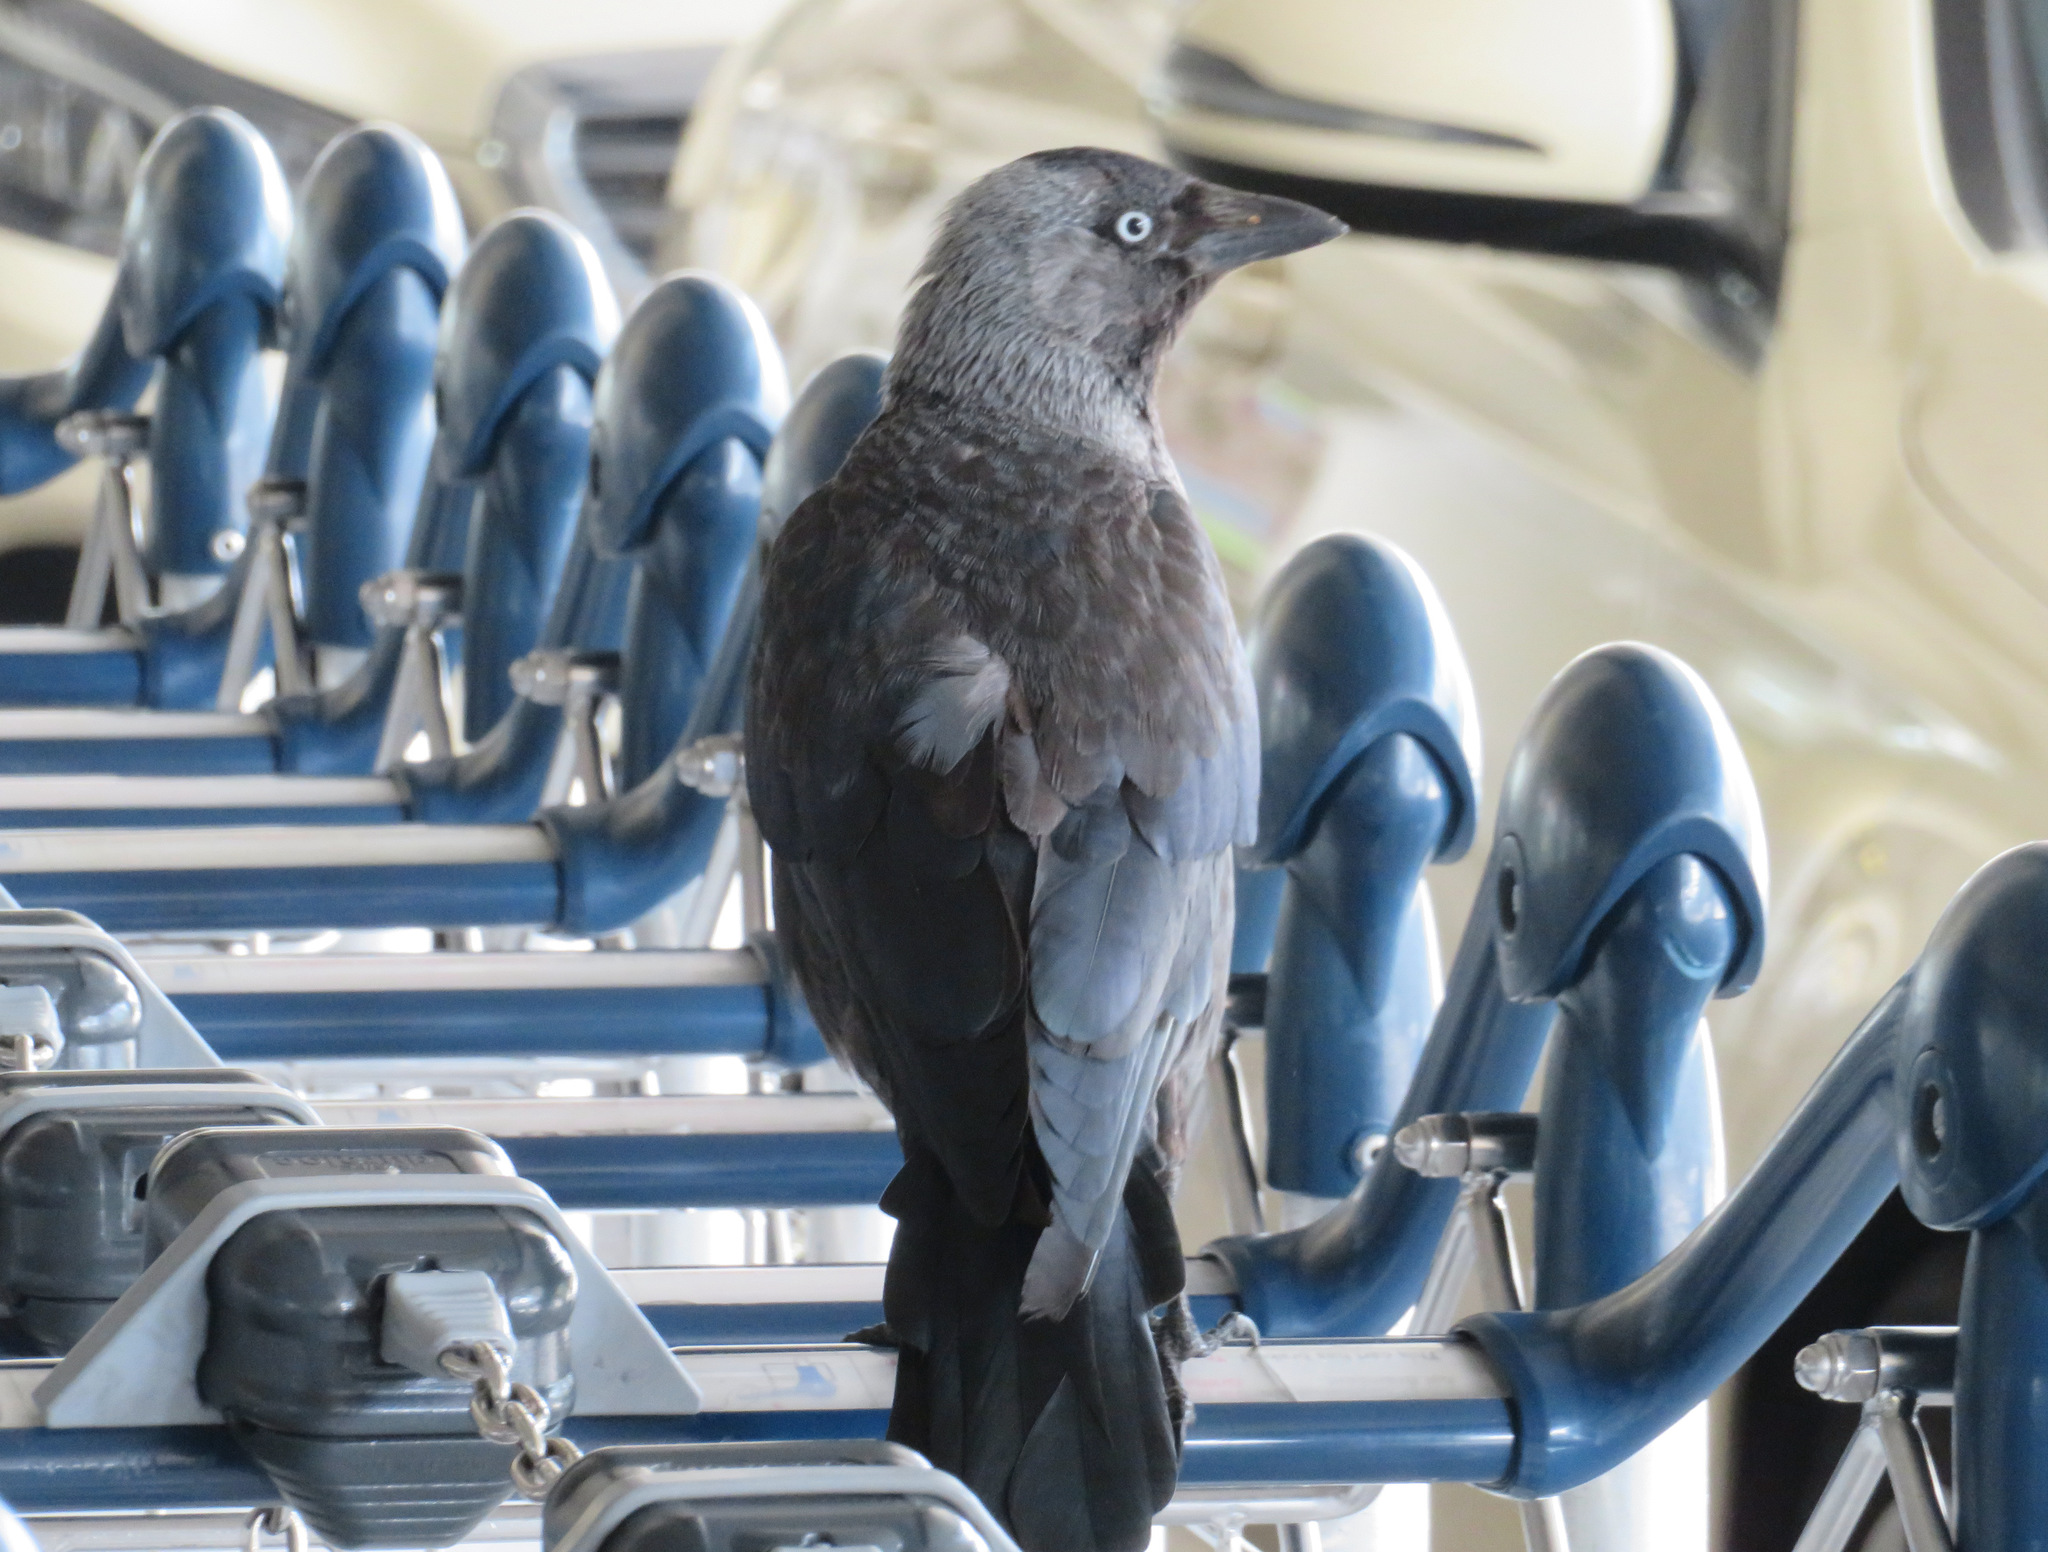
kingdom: Animalia
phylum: Chordata
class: Aves
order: Passeriformes
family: Corvidae
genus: Coloeus
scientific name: Coloeus monedula
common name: Western jackdaw
